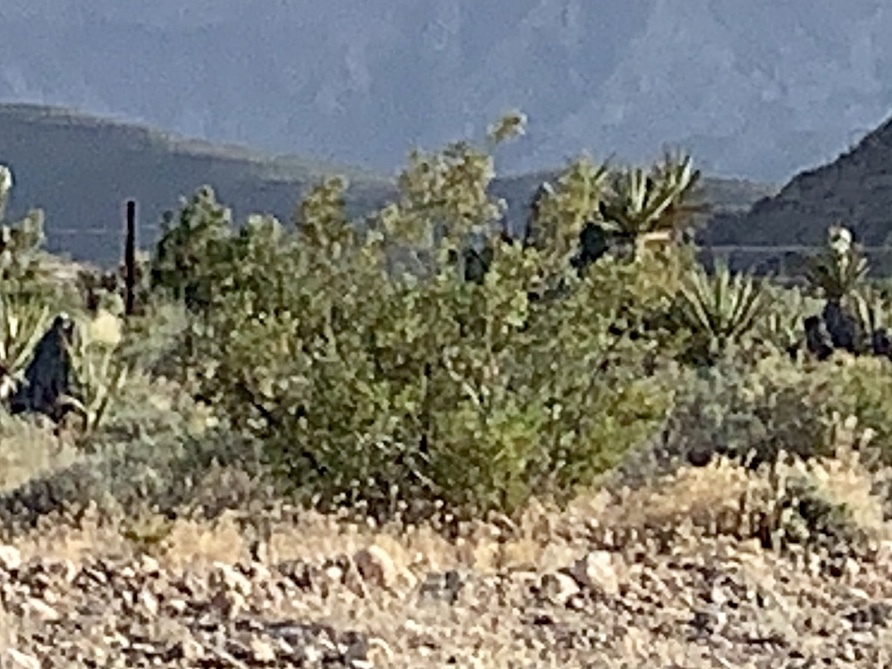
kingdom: Plantae
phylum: Tracheophyta
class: Magnoliopsida
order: Zygophyllales
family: Zygophyllaceae
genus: Larrea
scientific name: Larrea tridentata
